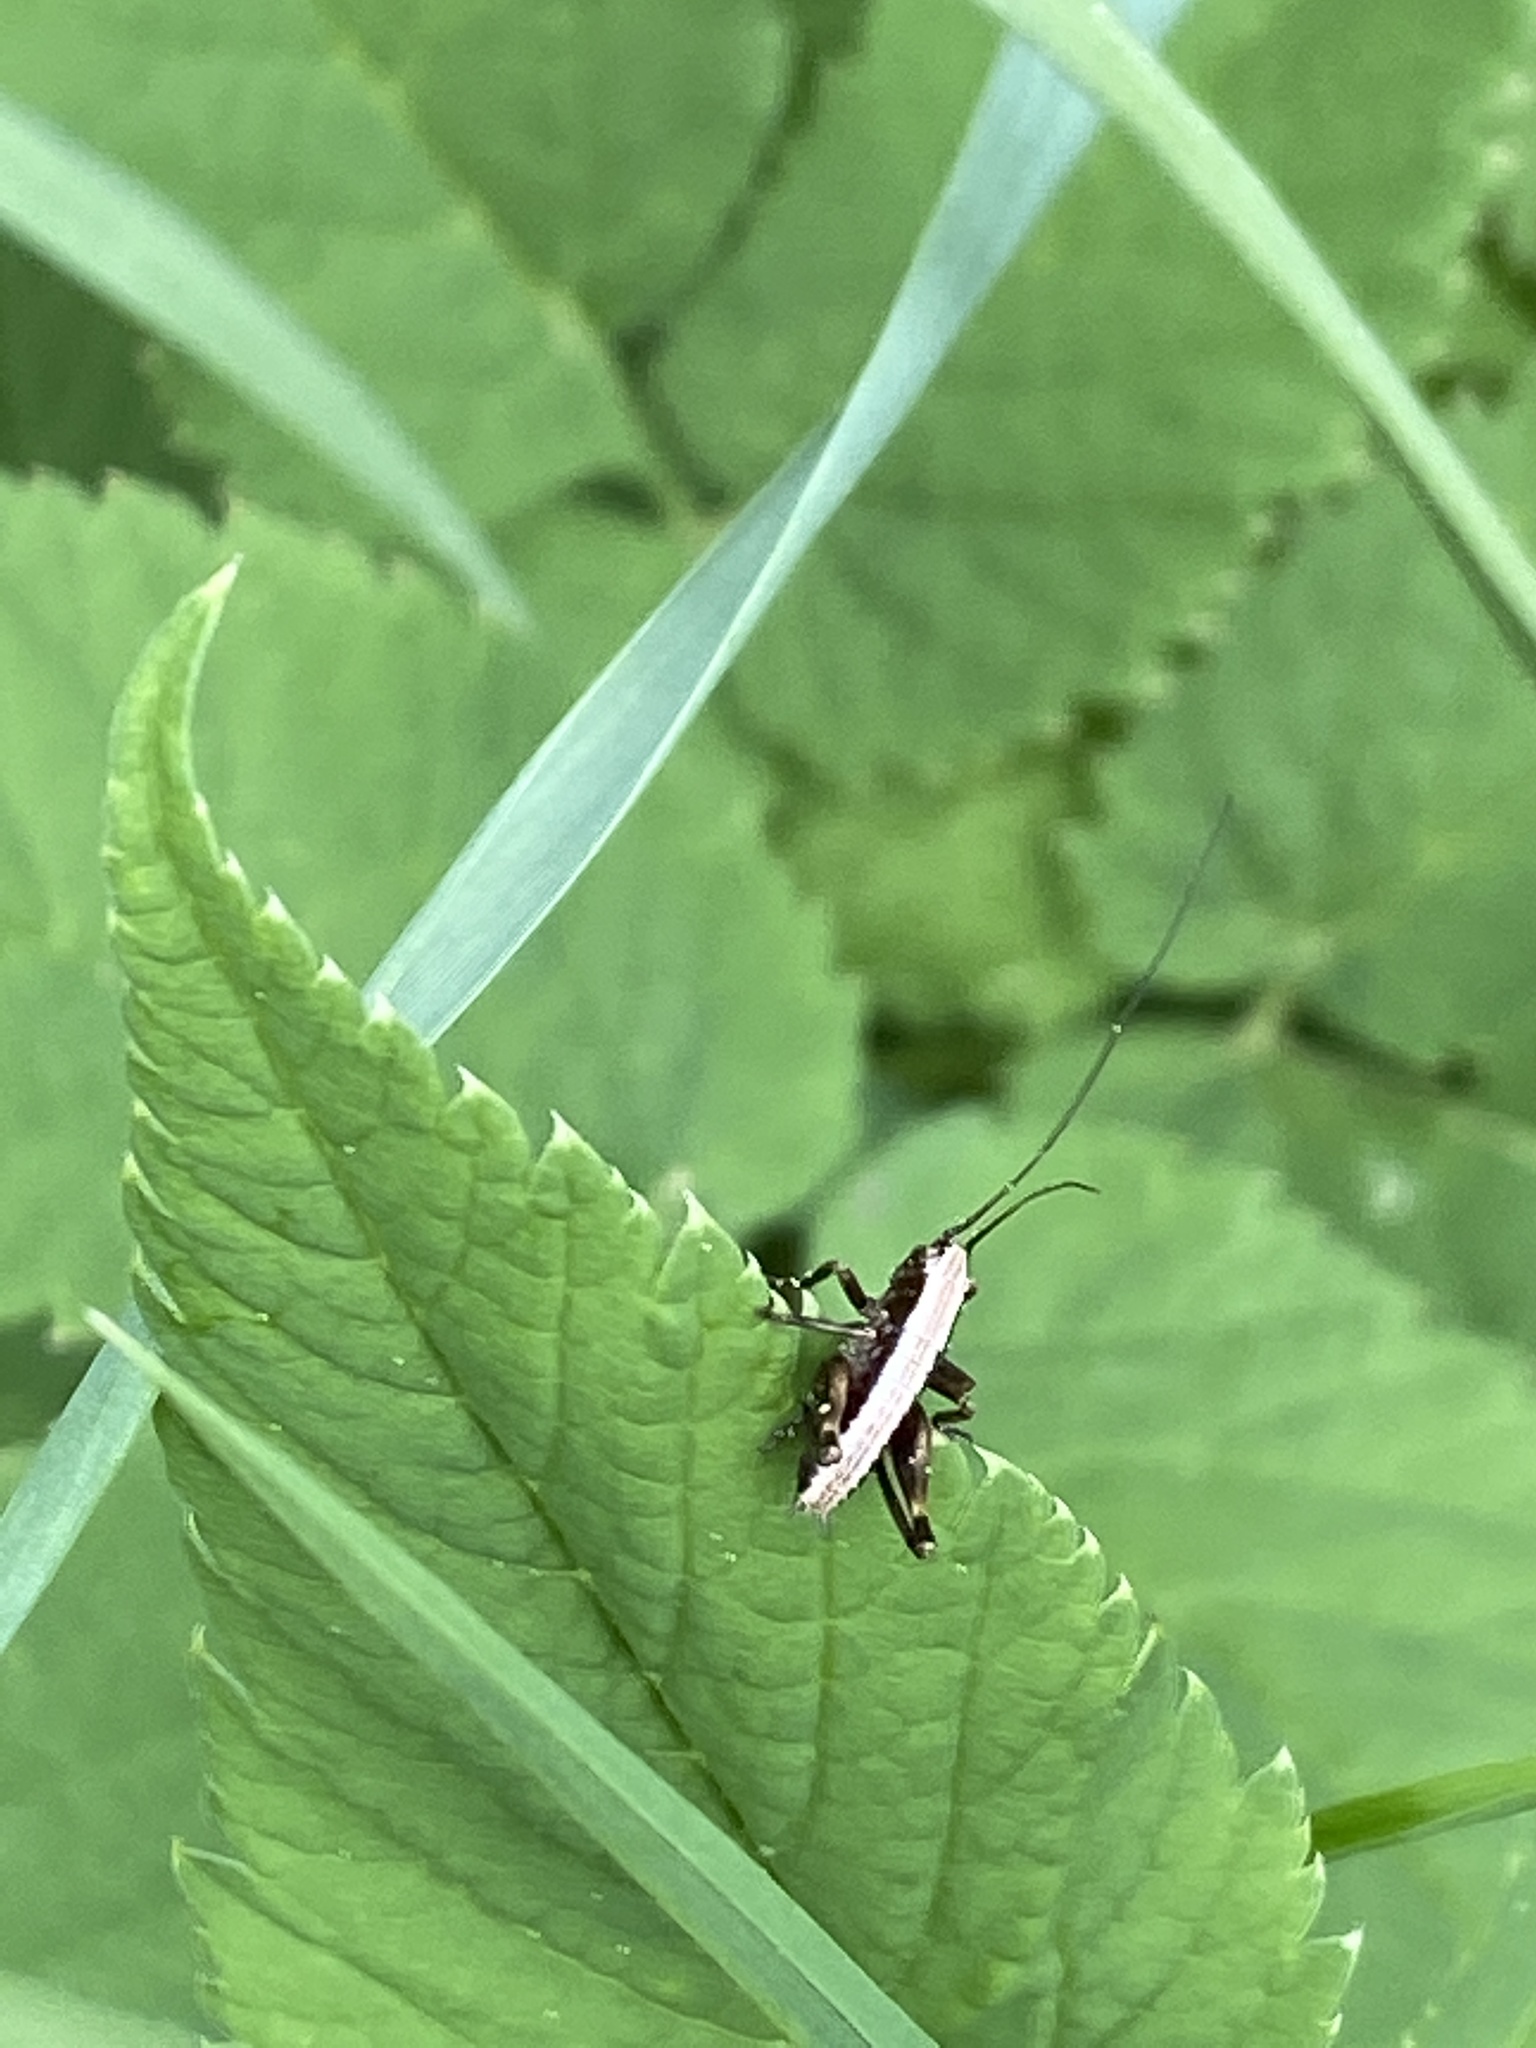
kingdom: Animalia
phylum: Arthropoda
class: Insecta
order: Orthoptera
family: Tettigoniidae
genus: Pholidoptera
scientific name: Pholidoptera griseoaptera
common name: Dark bush-cricket
